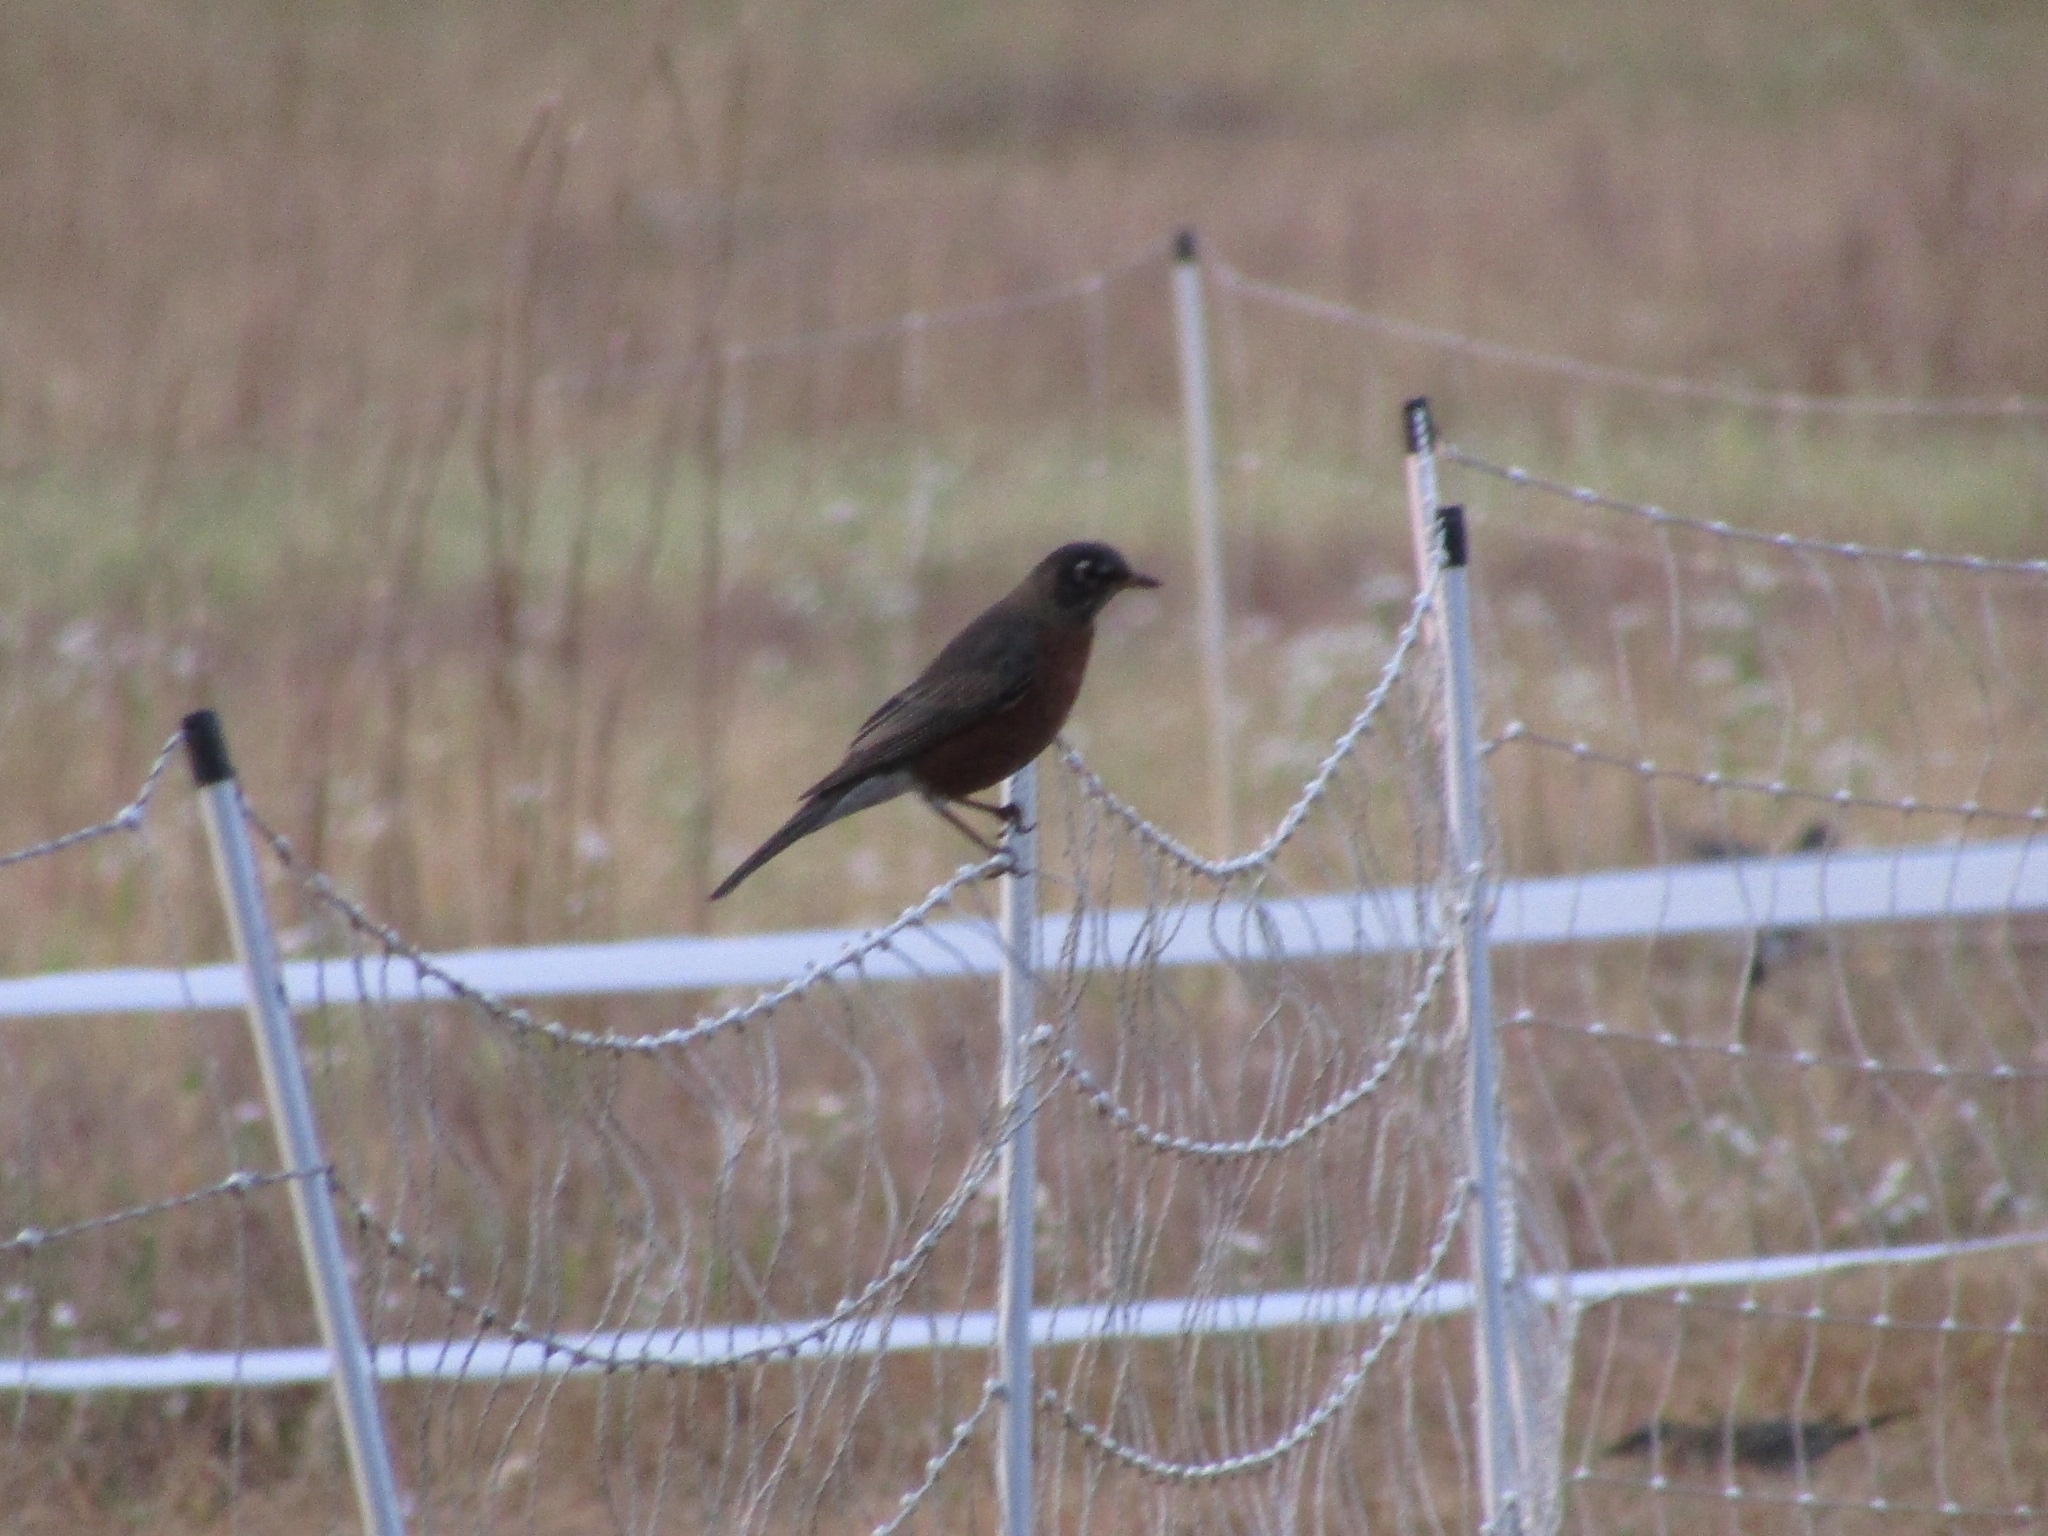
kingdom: Animalia
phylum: Chordata
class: Aves
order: Passeriformes
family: Turdidae
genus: Turdus
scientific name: Turdus migratorius
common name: American robin
